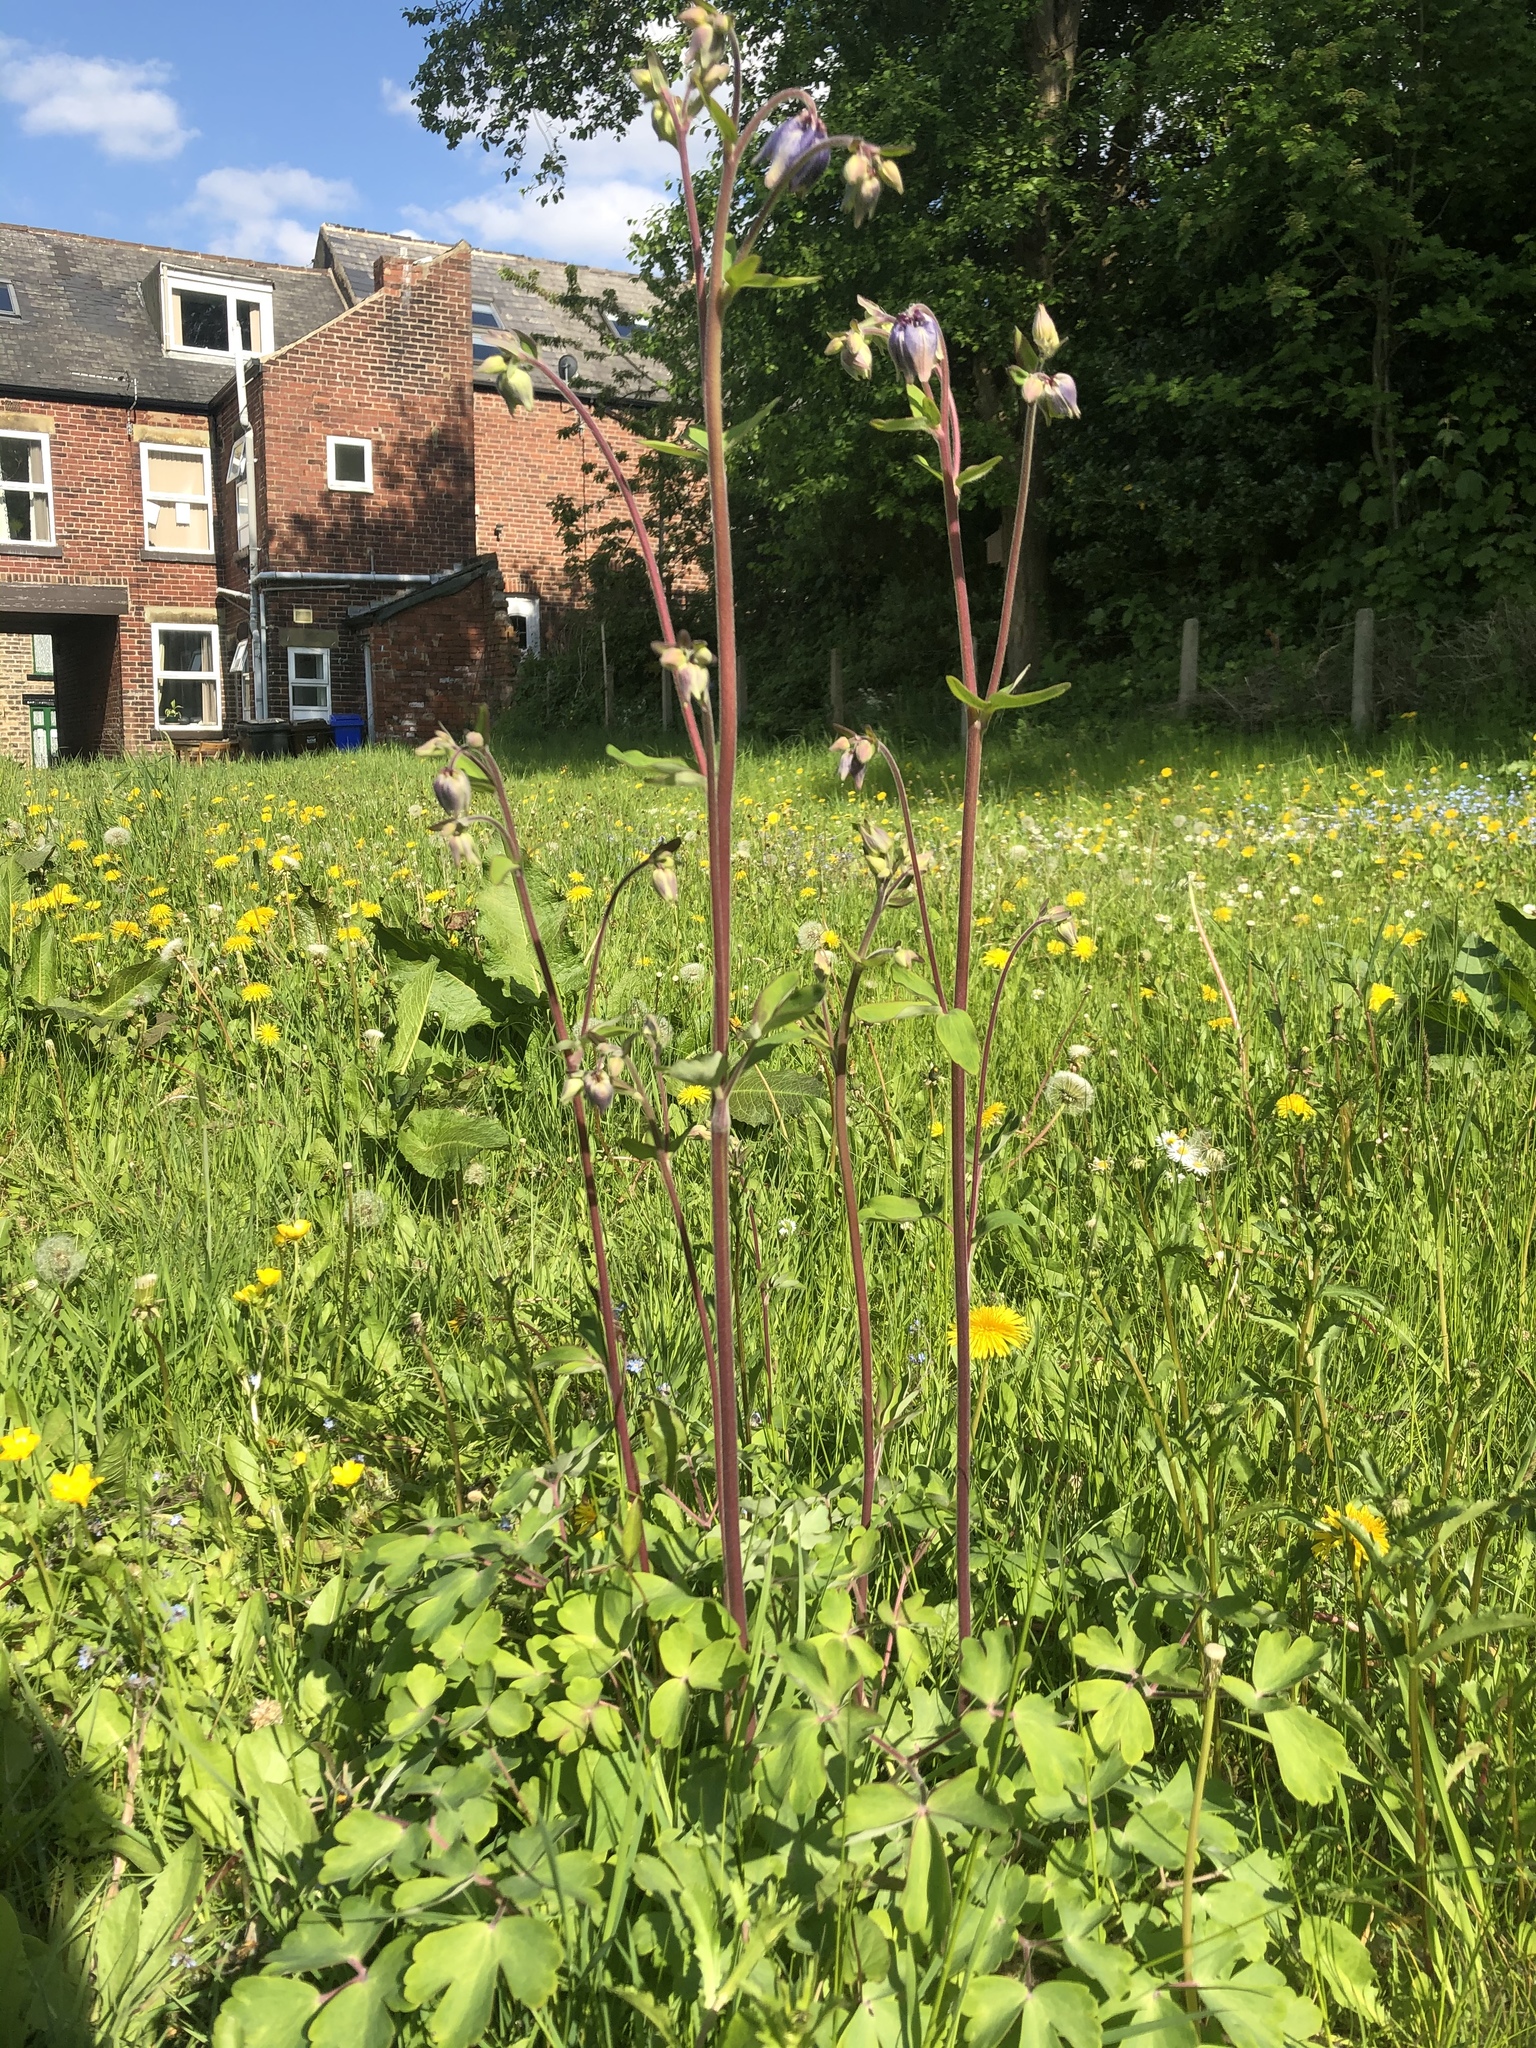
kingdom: Plantae
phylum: Tracheophyta
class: Magnoliopsida
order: Ranunculales
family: Ranunculaceae
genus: Aquilegia
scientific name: Aquilegia vulgaris
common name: Columbine
